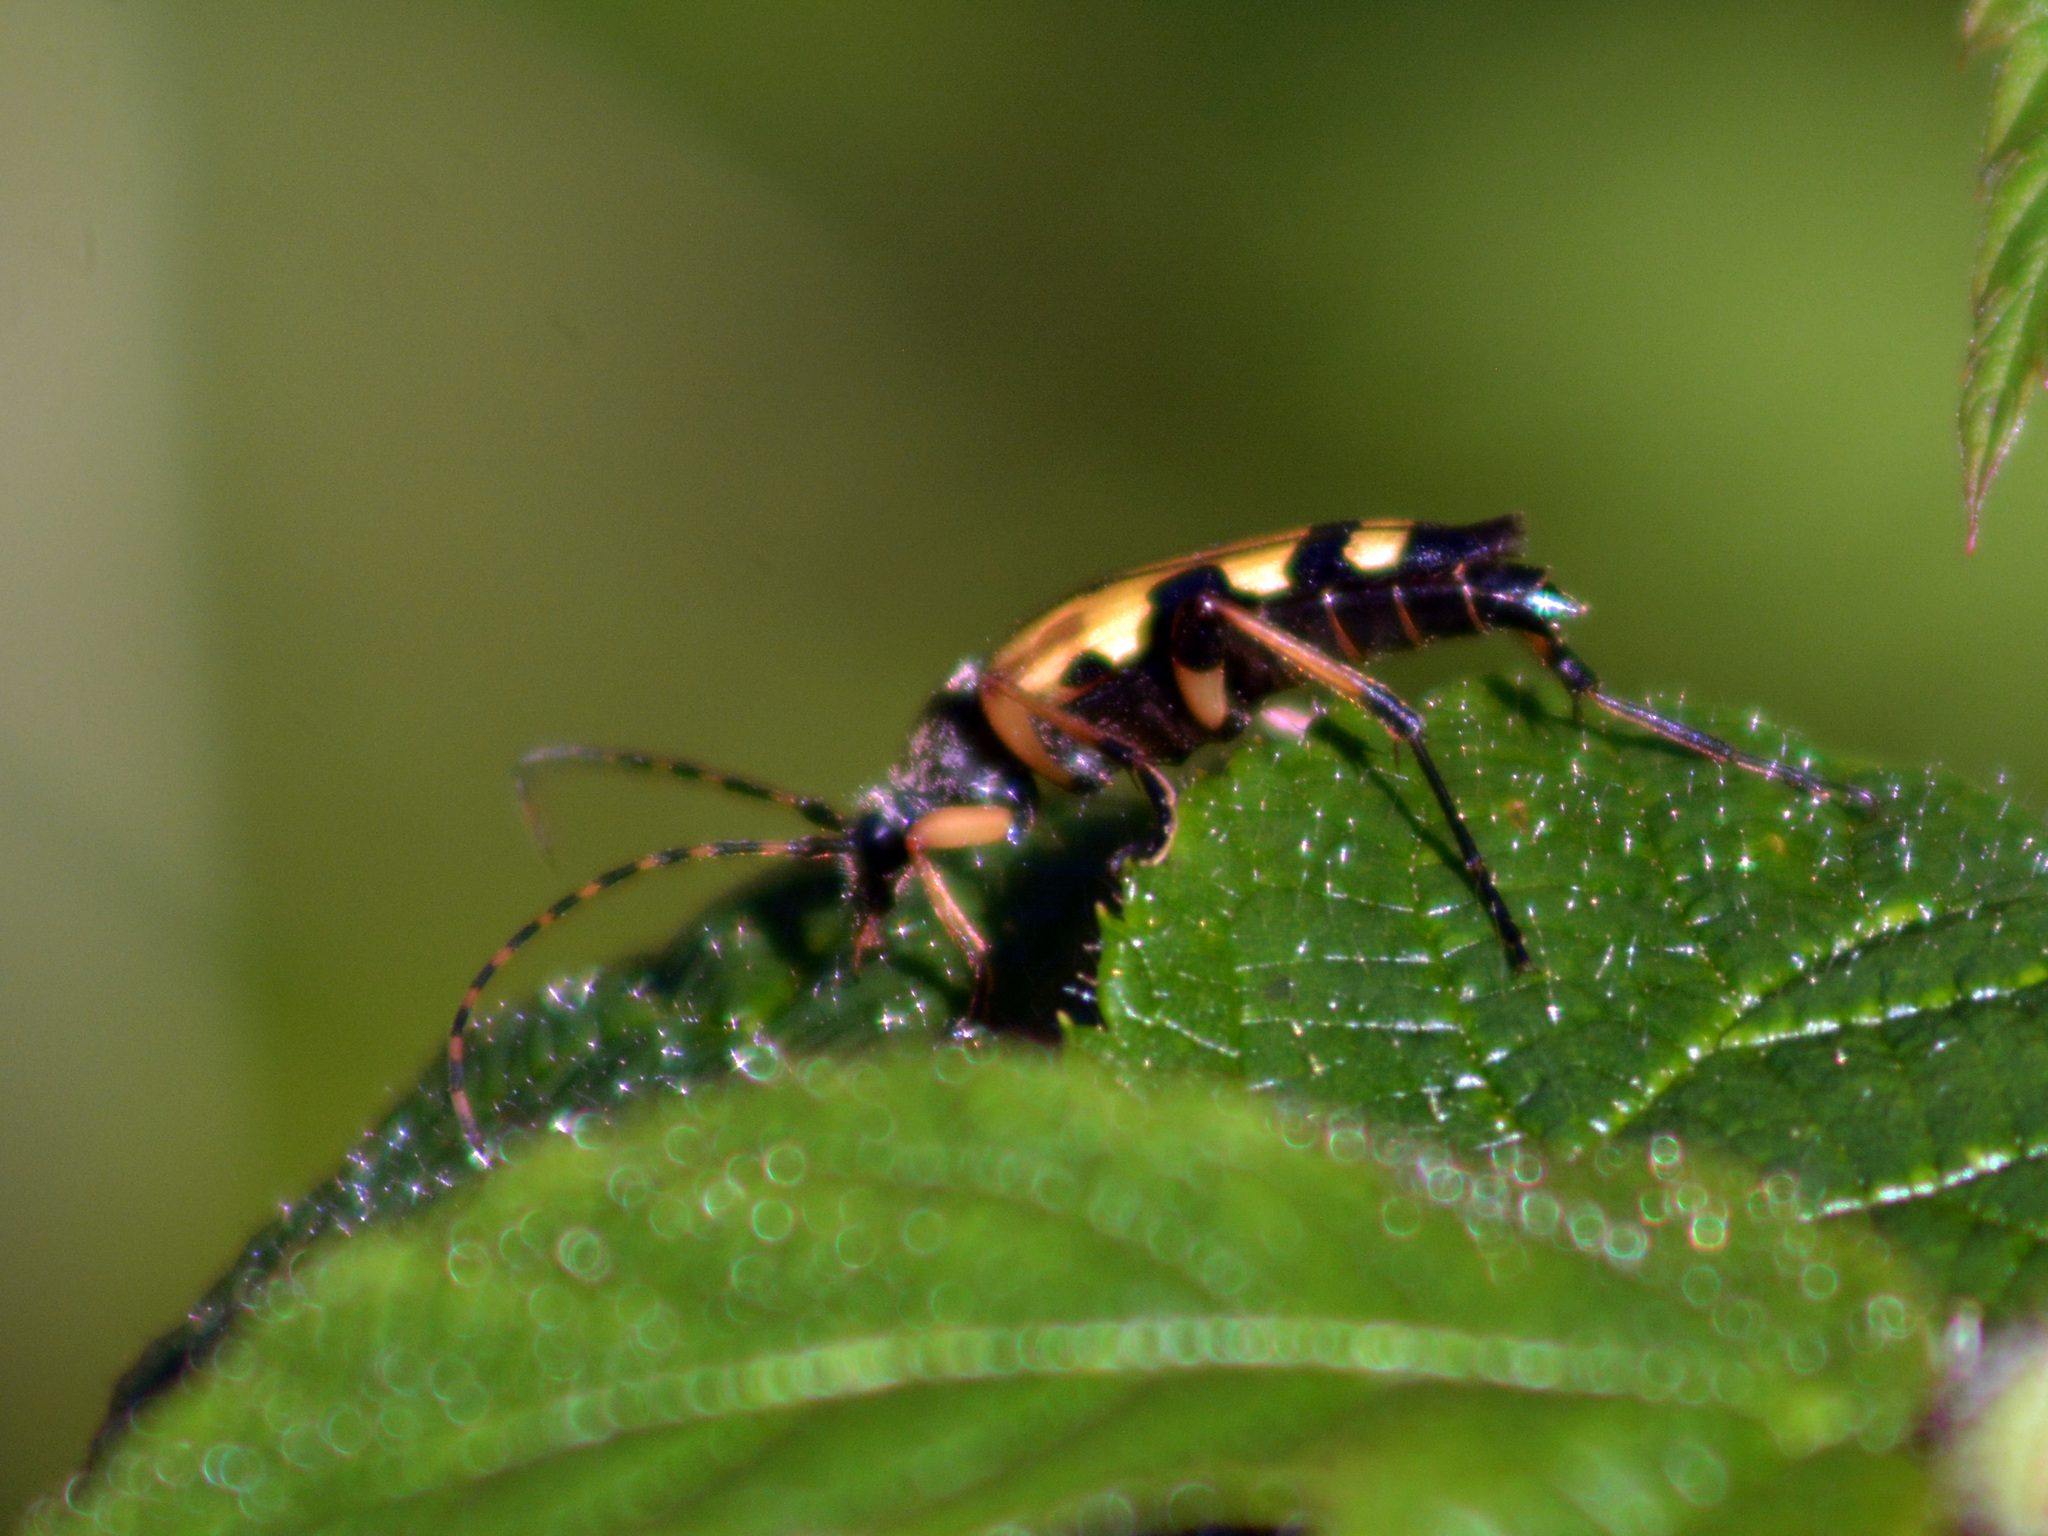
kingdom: Animalia
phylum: Arthropoda
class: Insecta
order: Coleoptera
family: Cerambycidae
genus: Rutpela
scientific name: Rutpela maculata
